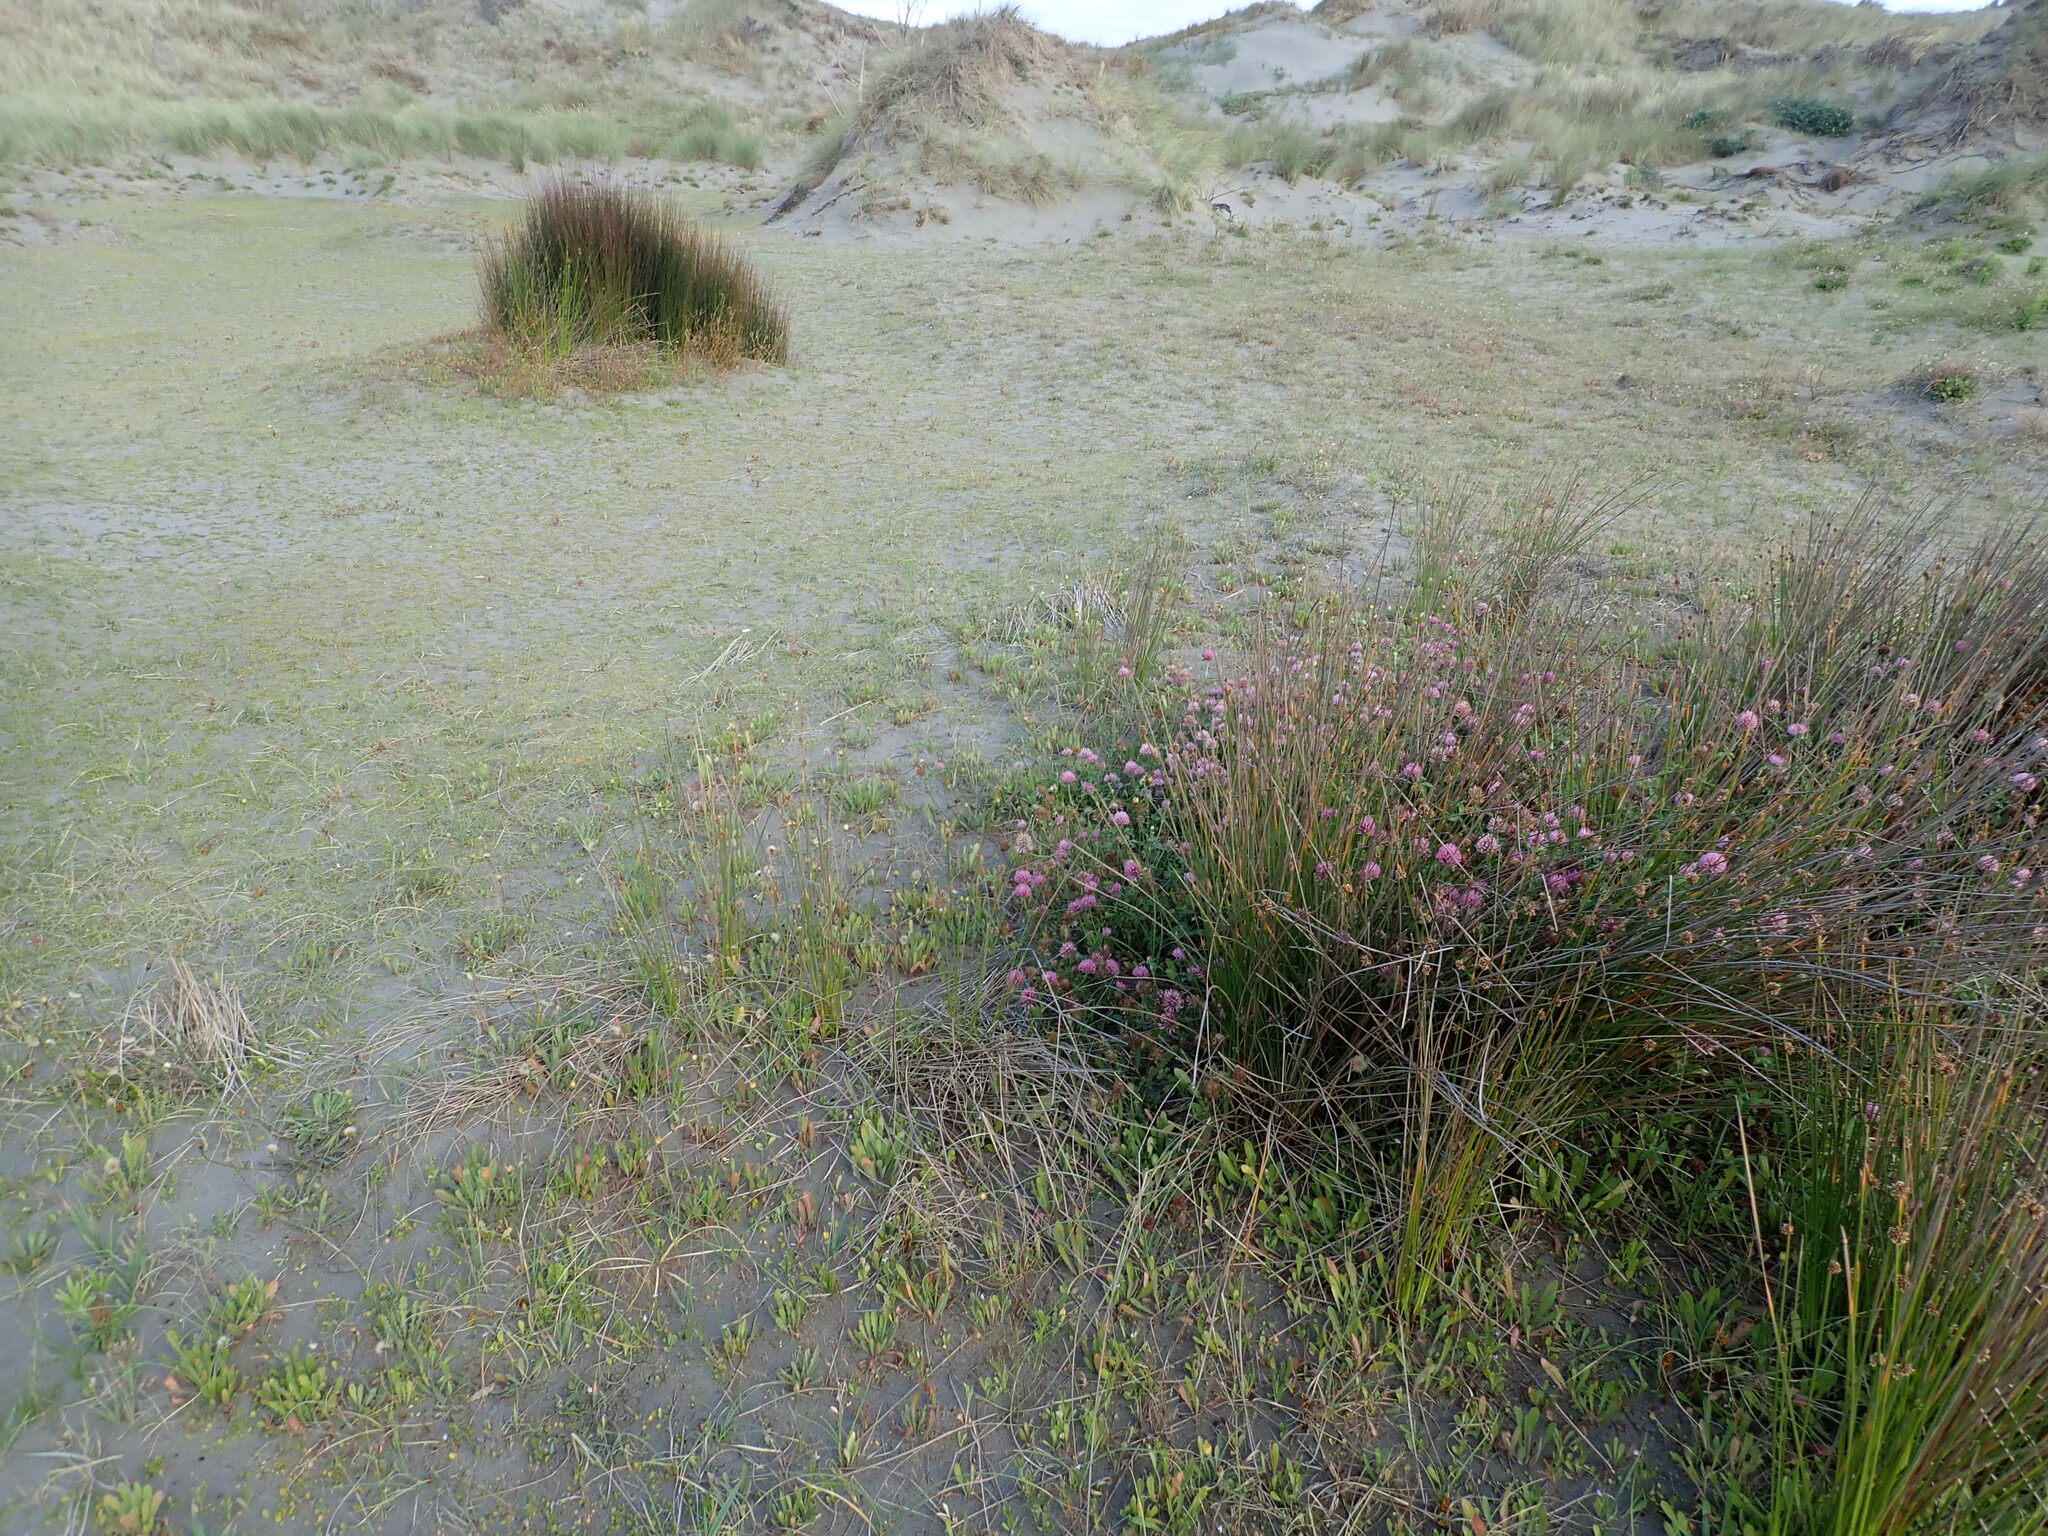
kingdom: Plantae
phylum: Tracheophyta
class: Magnoliopsida
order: Fabales
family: Fabaceae
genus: Trifolium
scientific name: Trifolium pratense
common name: Red clover
